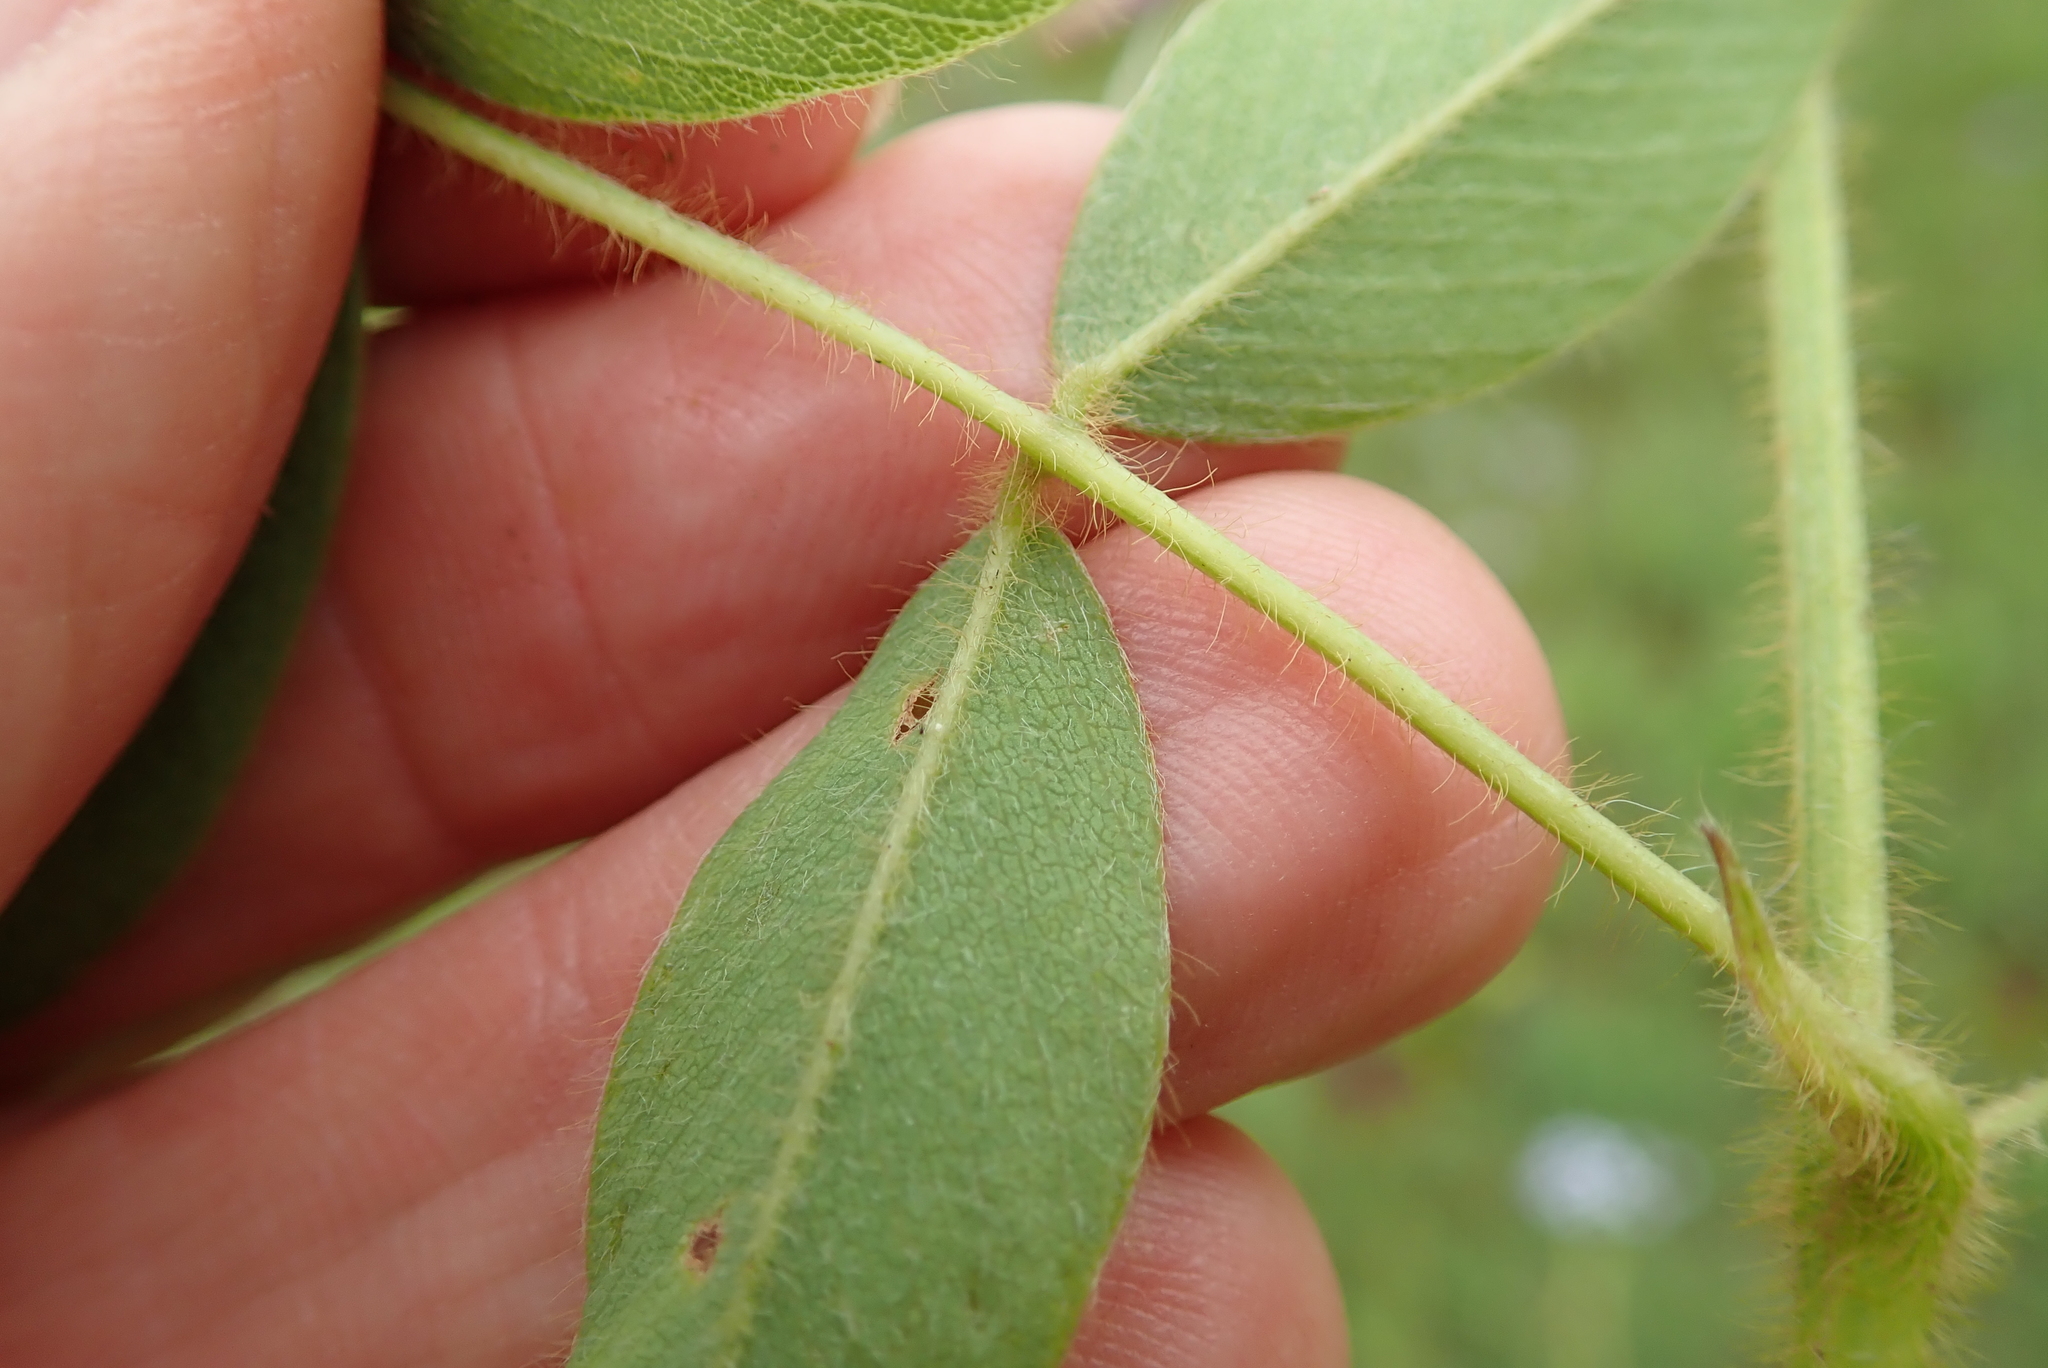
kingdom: Plantae
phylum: Tracheophyta
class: Magnoliopsida
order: Fabales
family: Fabaceae
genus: Tephrosia
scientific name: Tephrosia macropoda
